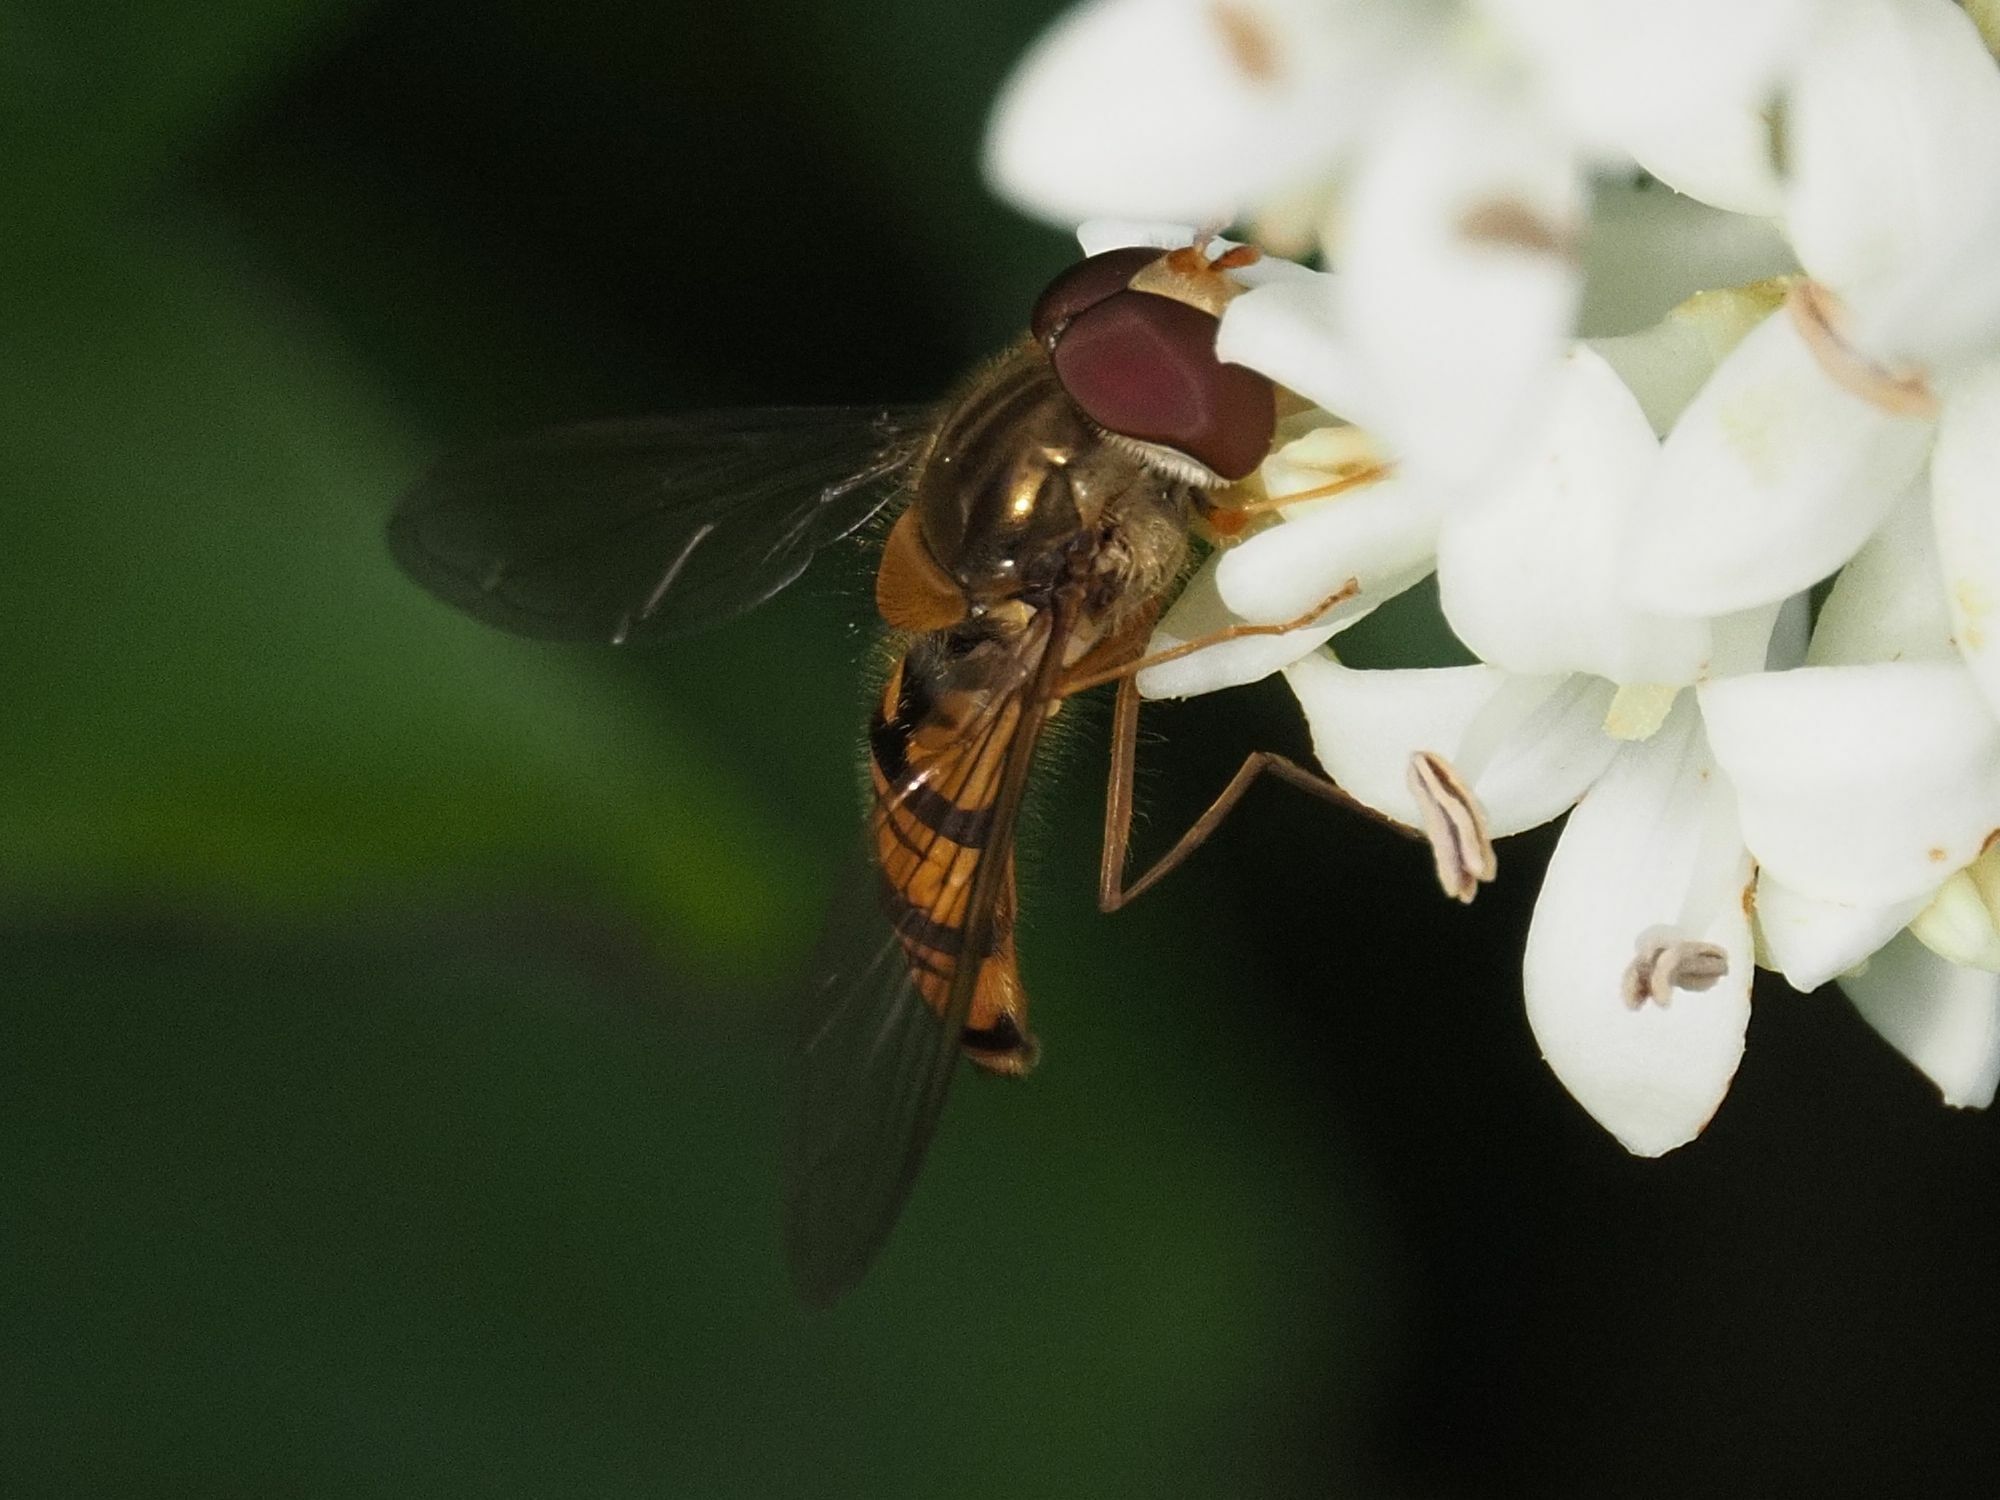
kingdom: Animalia
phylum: Arthropoda
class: Insecta
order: Diptera
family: Syrphidae
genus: Episyrphus
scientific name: Episyrphus balteatus
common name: Marmalade hoverfly
